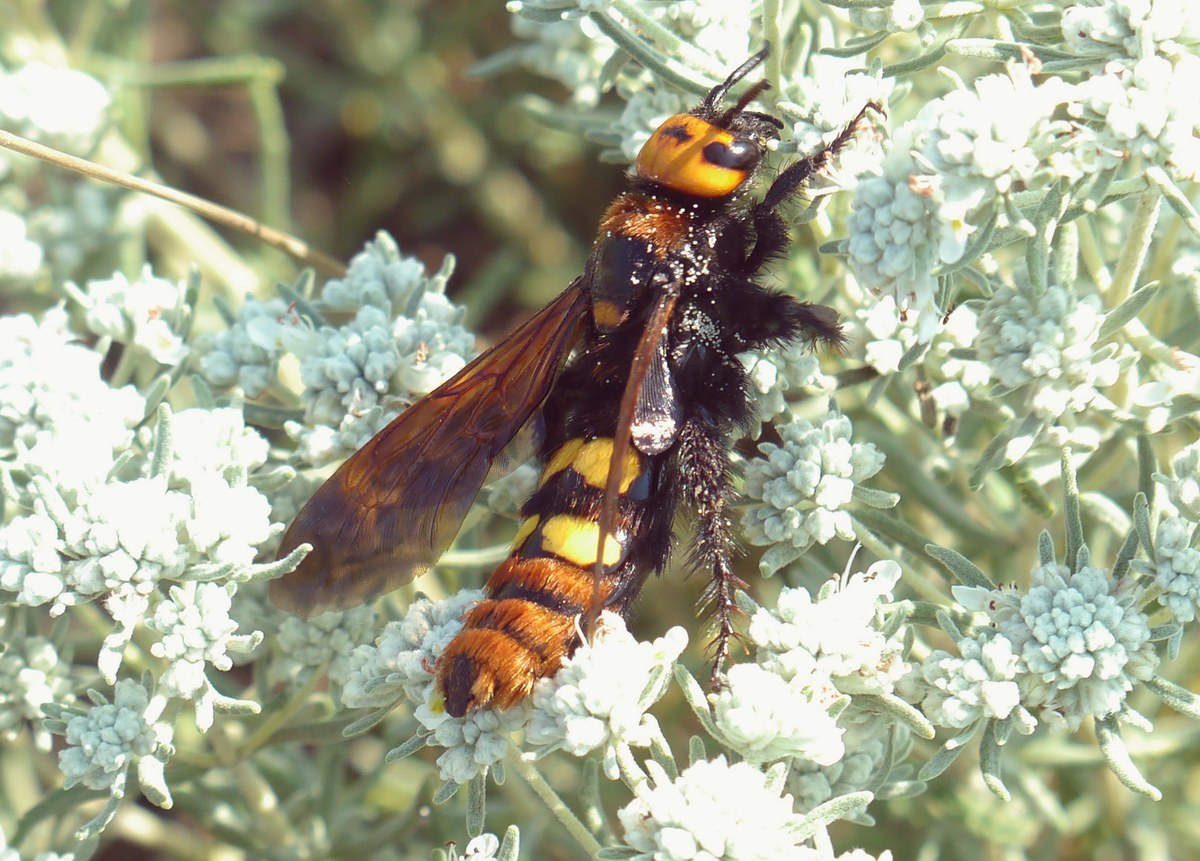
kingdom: Animalia
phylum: Arthropoda
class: Insecta
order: Hymenoptera
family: Scoliidae
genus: Megascolia
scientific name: Megascolia maculata
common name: Mammoth wasp
